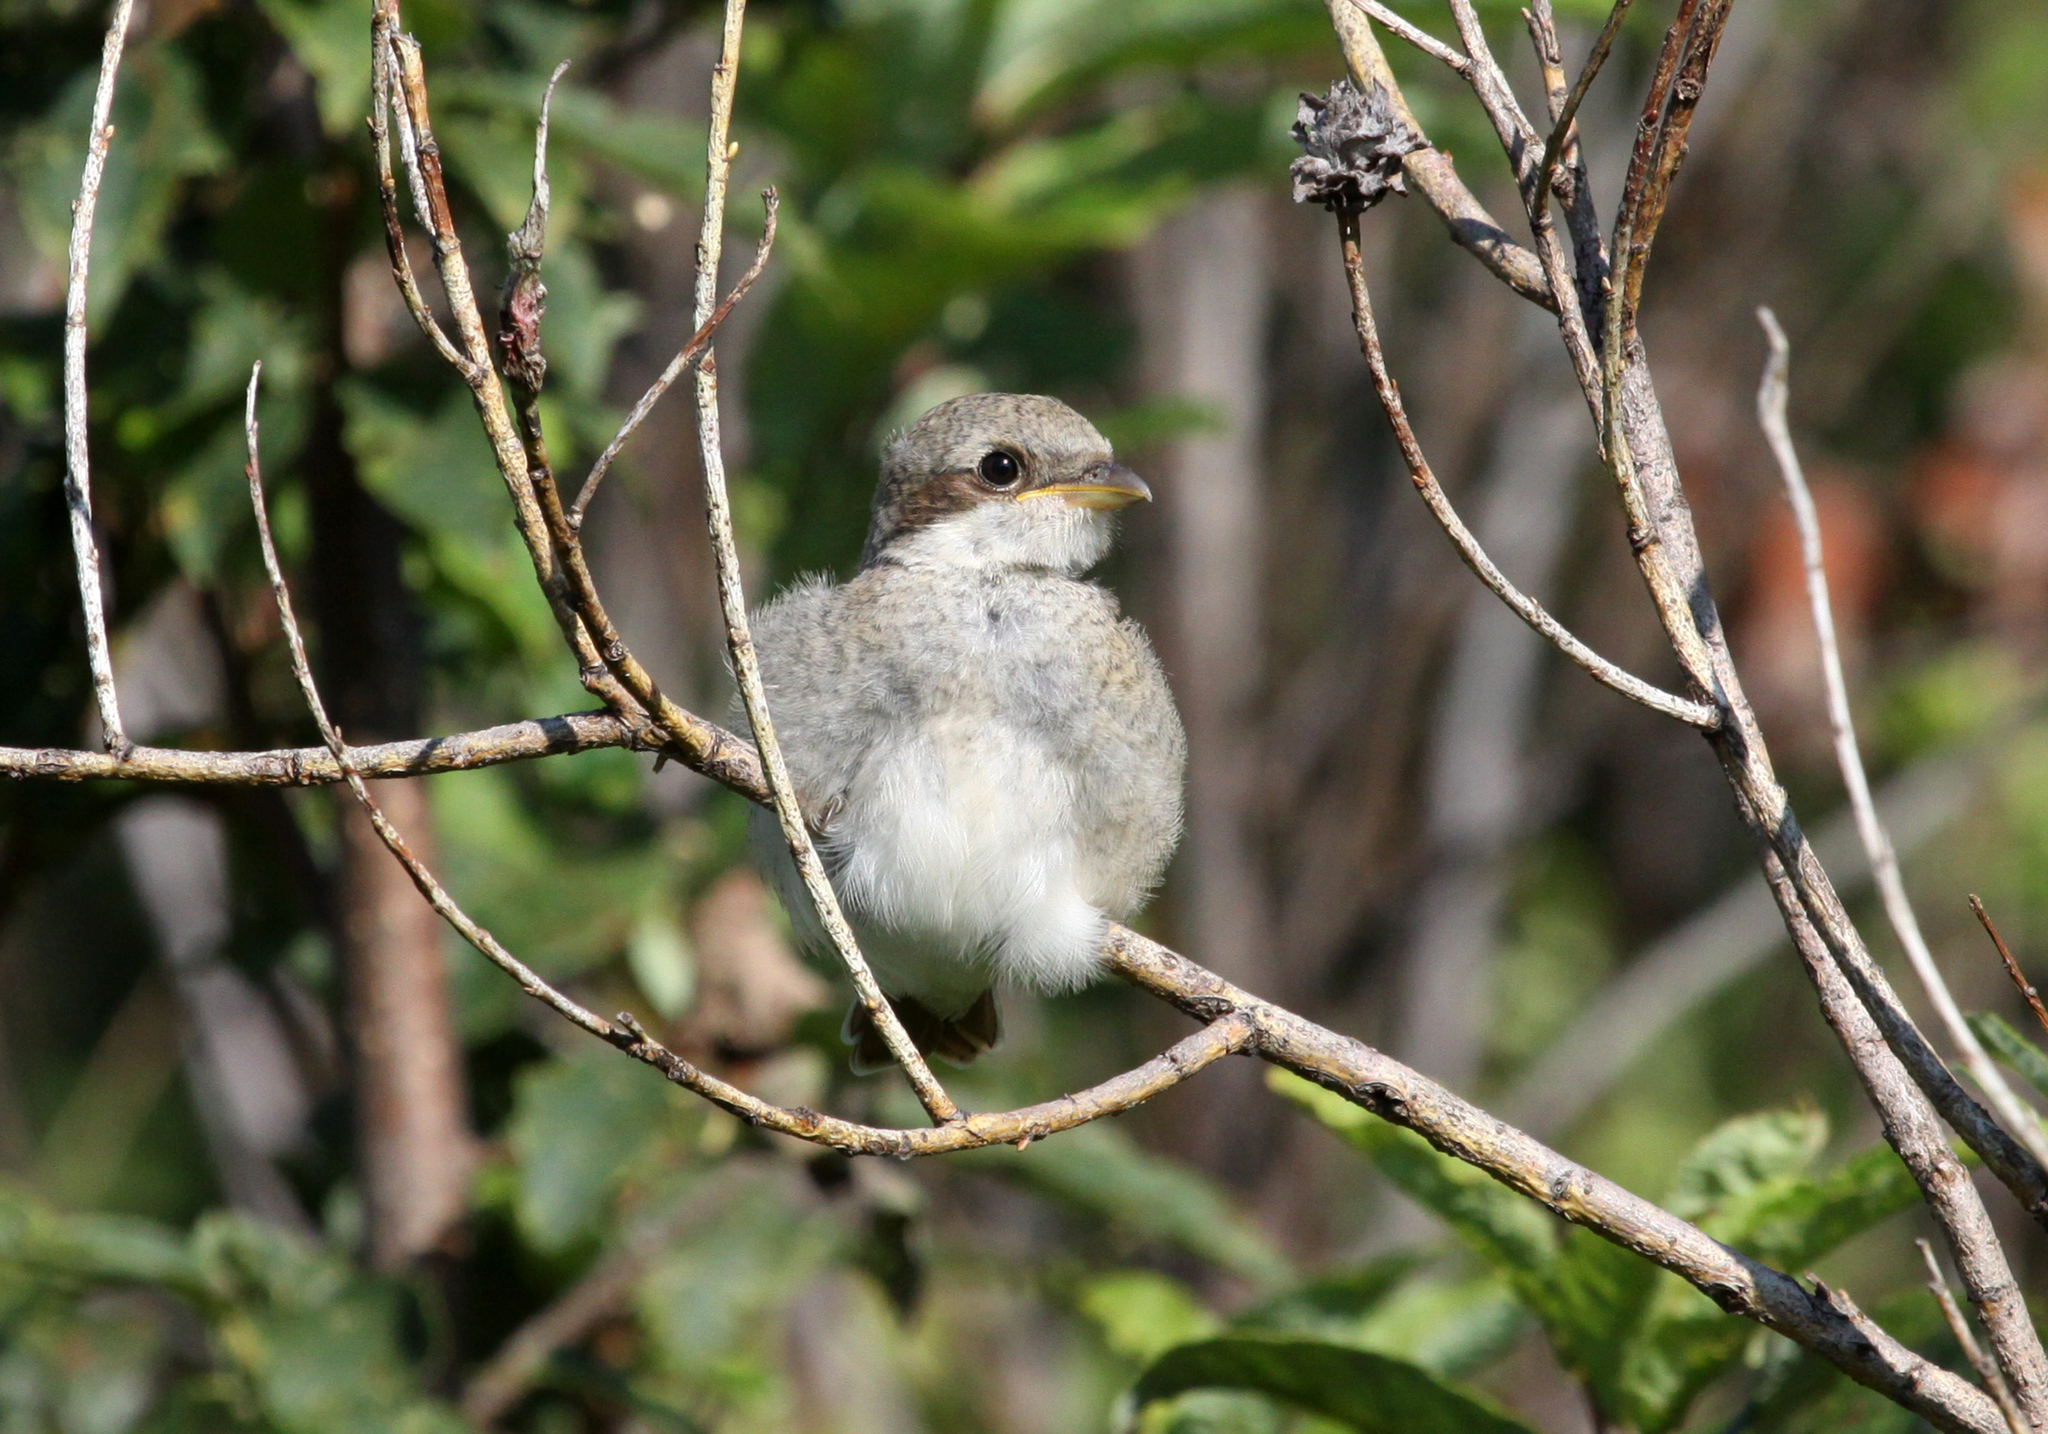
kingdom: Animalia
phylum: Chordata
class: Aves
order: Passeriformes
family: Laniidae
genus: Lanius
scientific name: Lanius collurio
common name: Red-backed shrike
